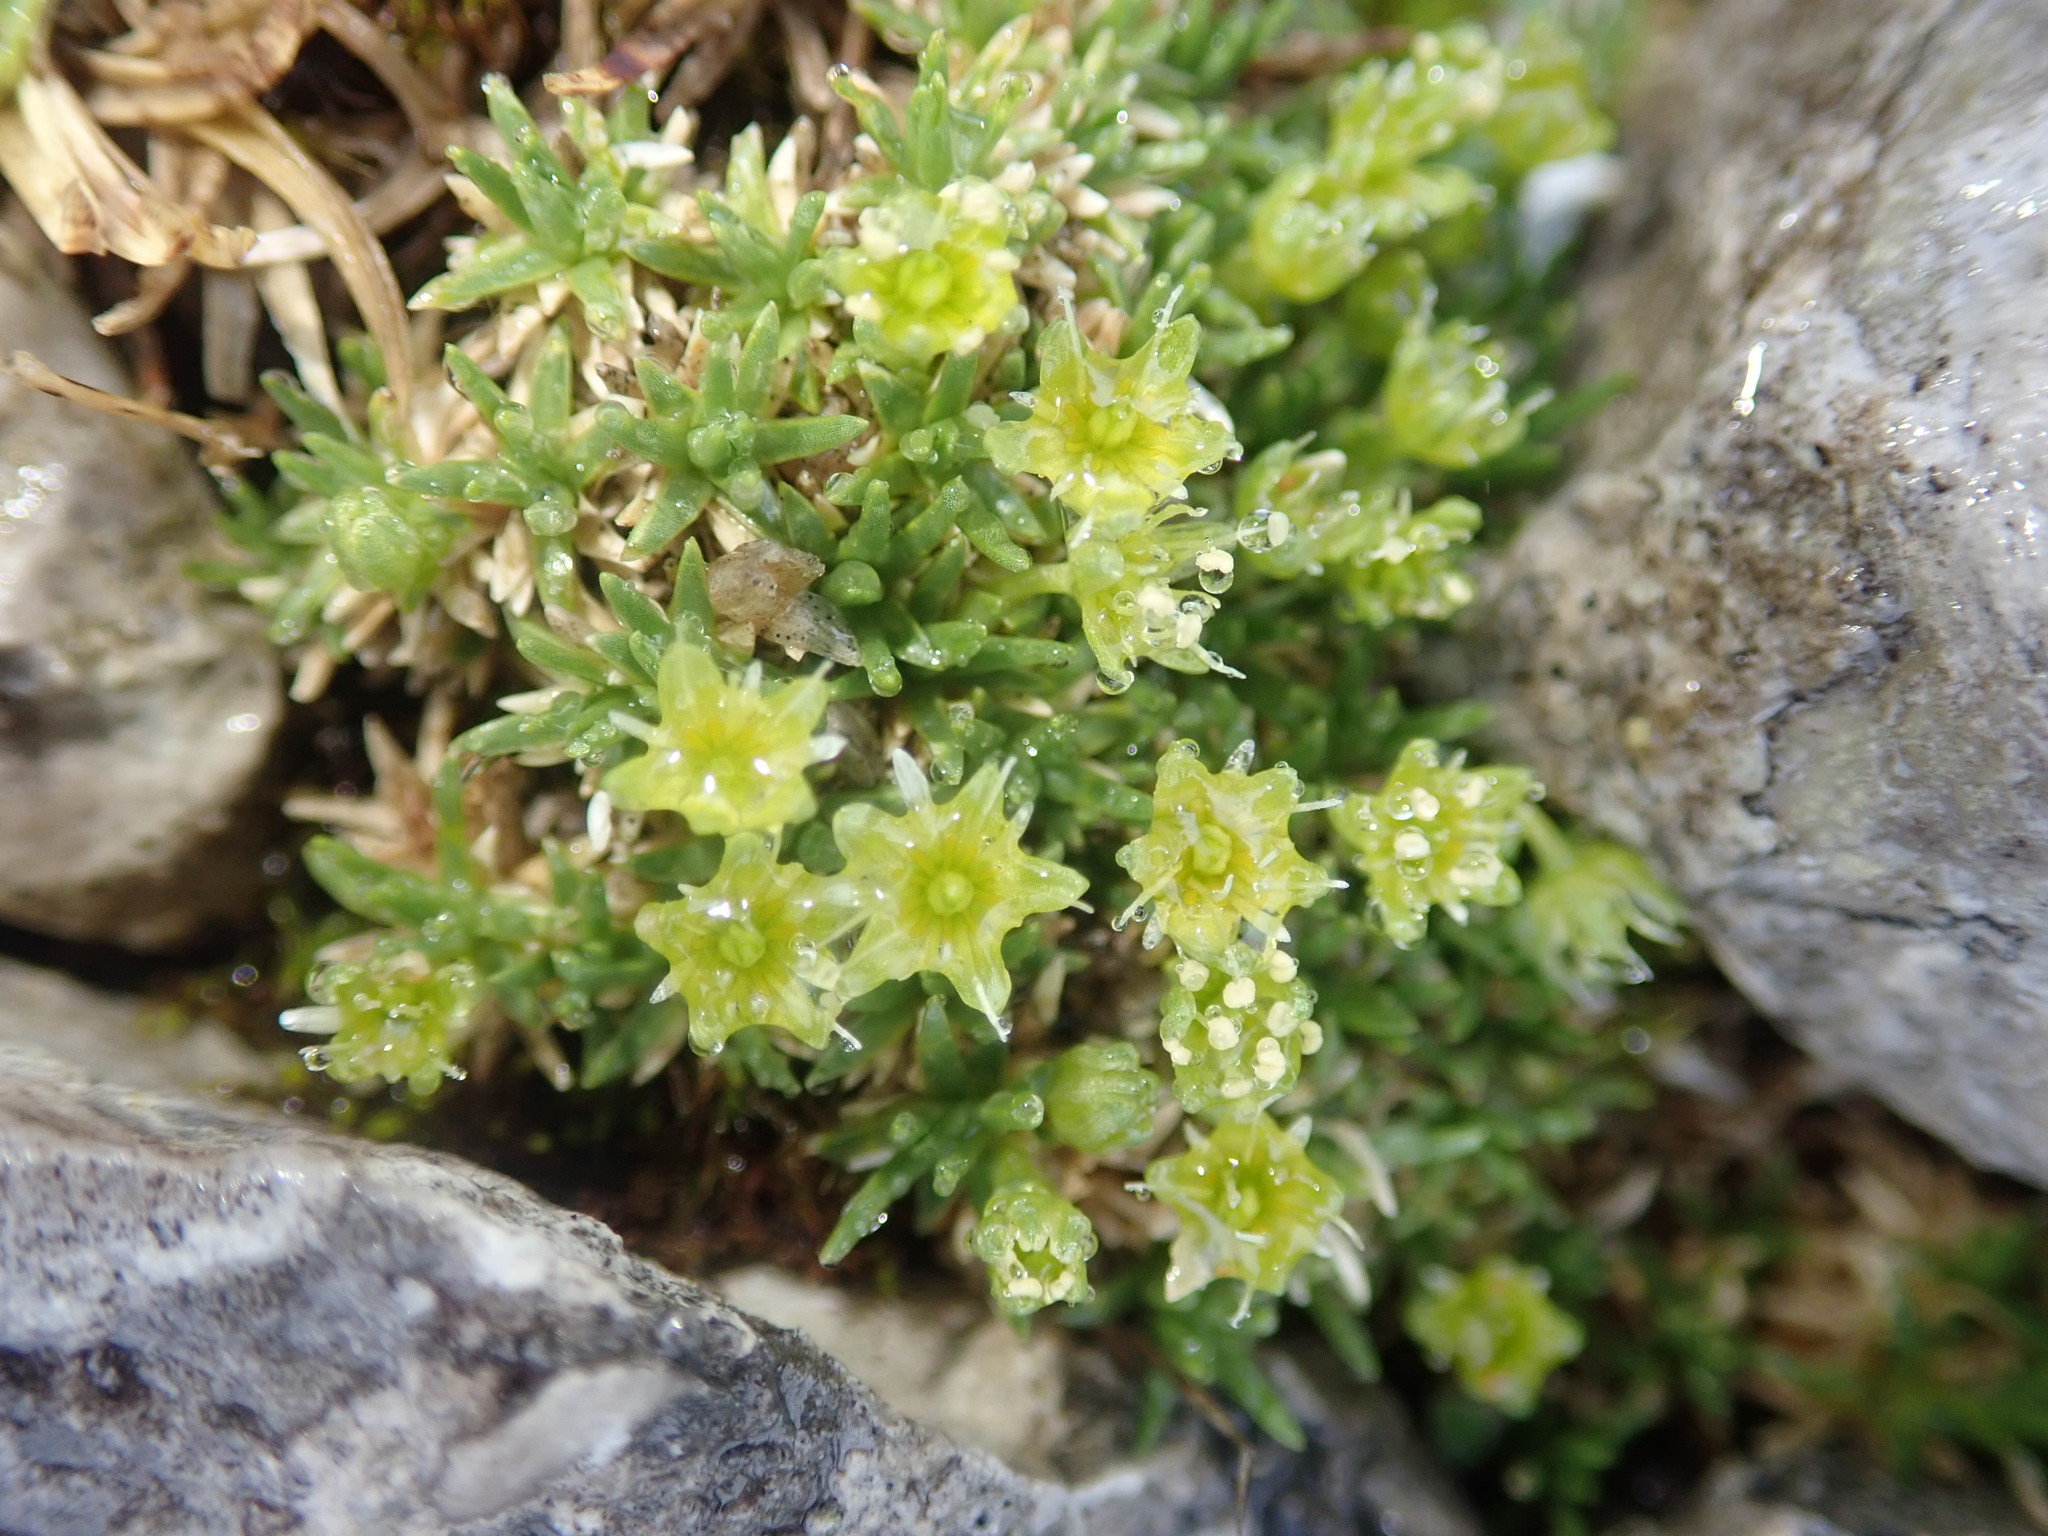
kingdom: Plantae
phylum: Tracheophyta
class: Magnoliopsida
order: Saxifragales
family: Saxifragaceae
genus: Saxifraga
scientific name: Saxifraga aizoides
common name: Yellow mountain saxifrage
